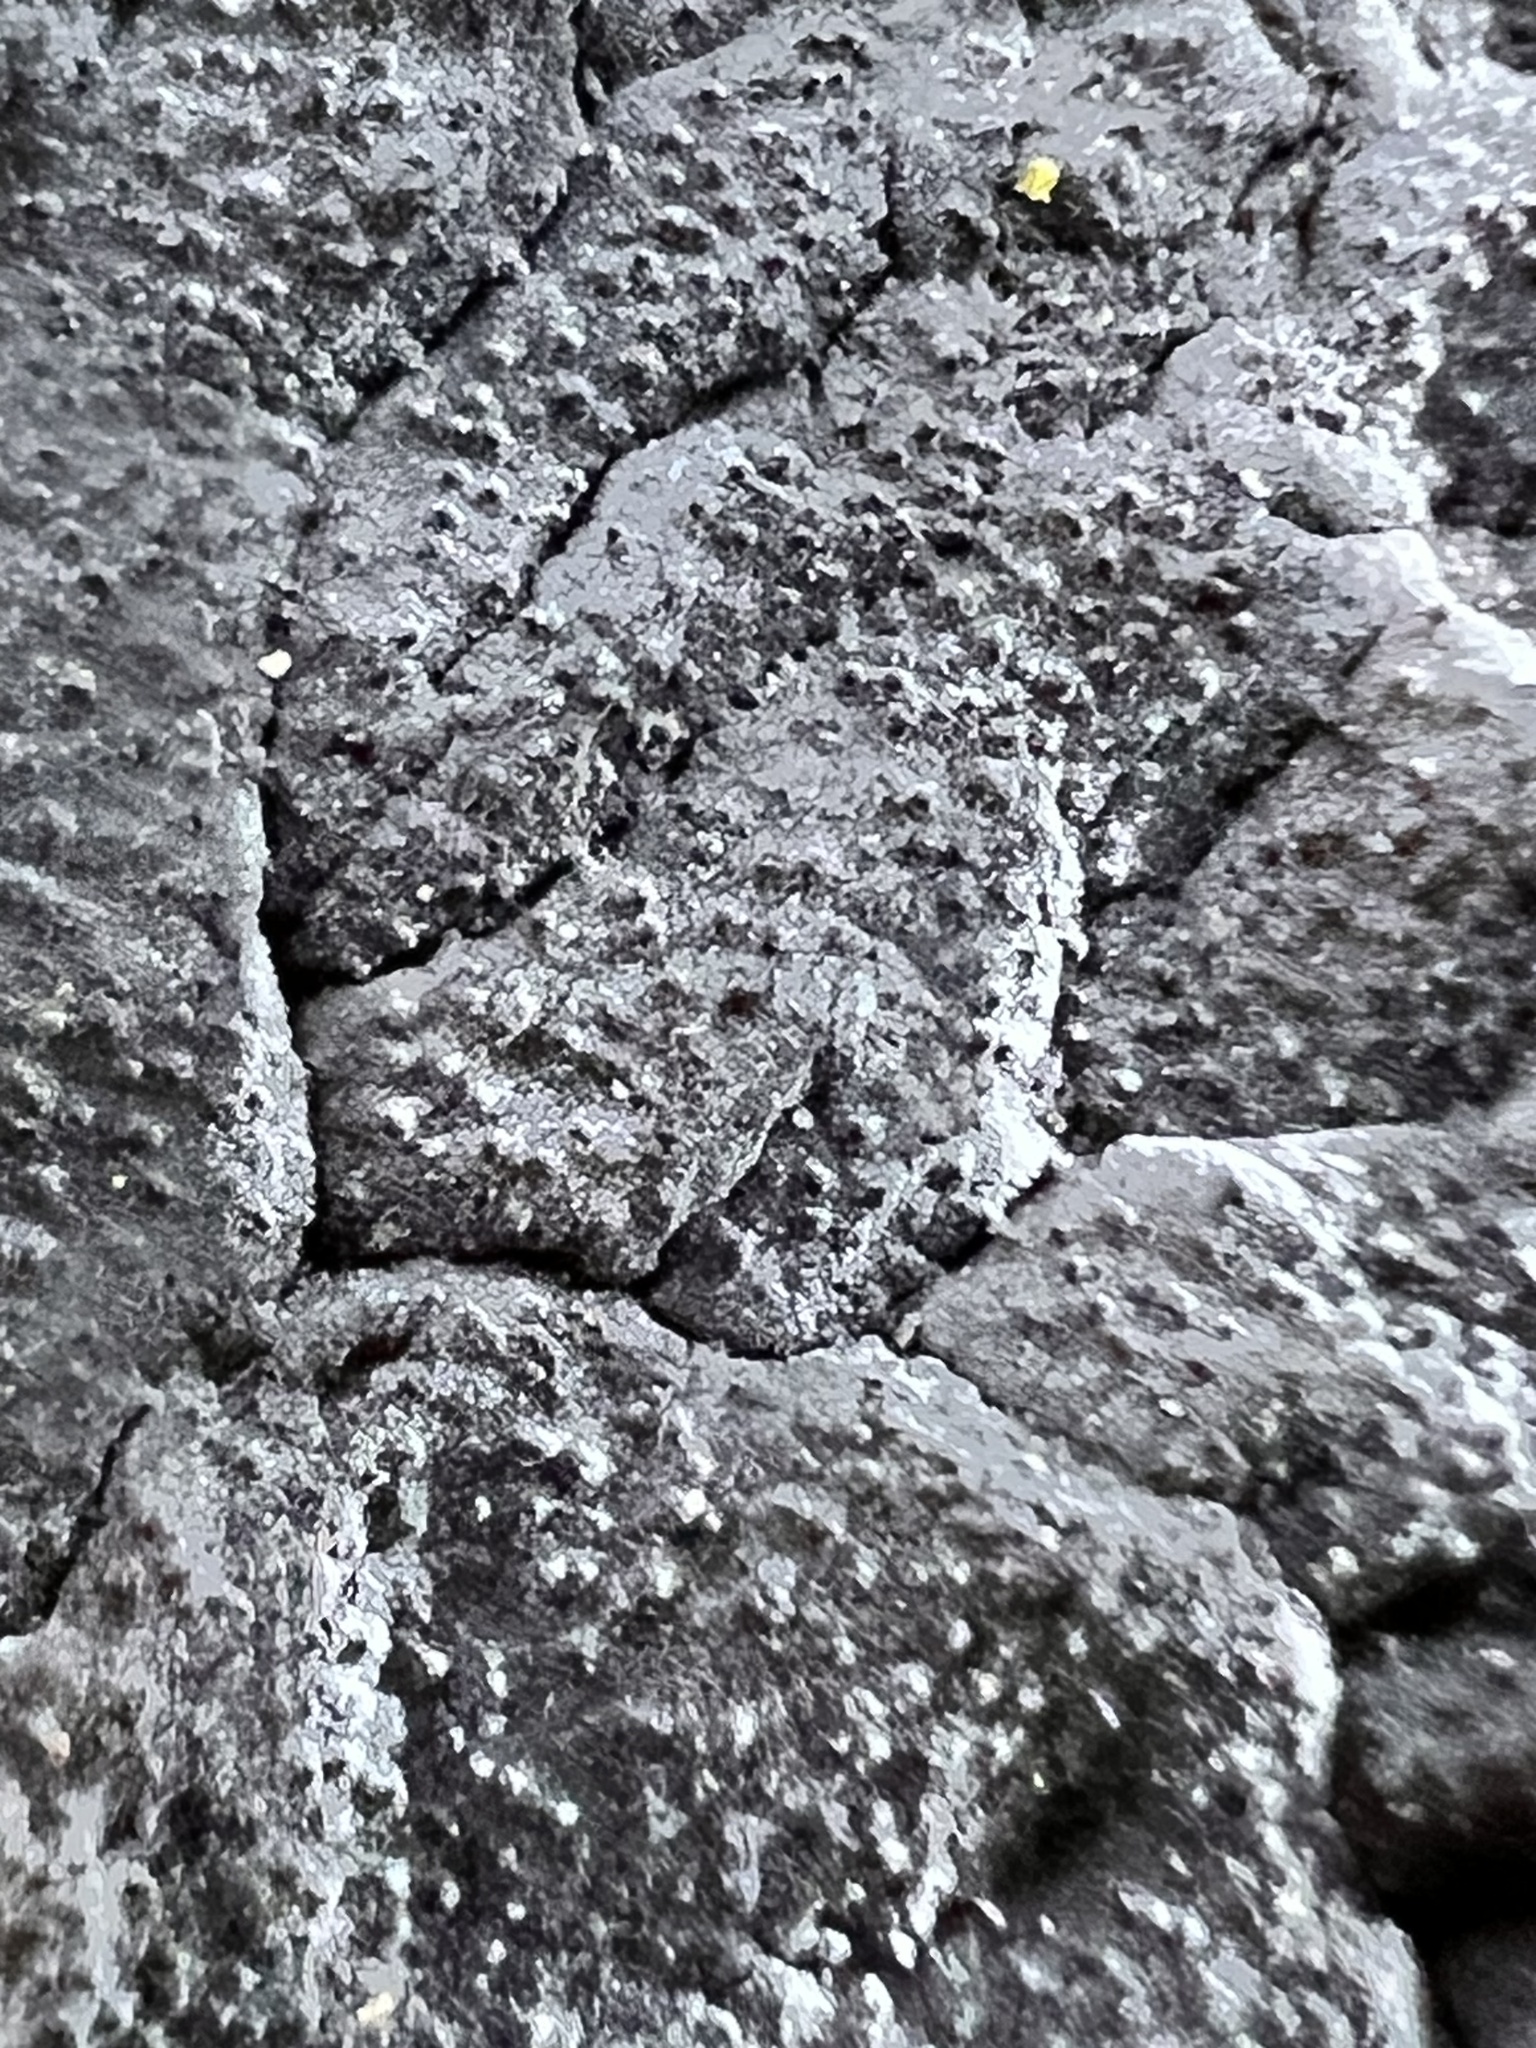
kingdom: Fungi
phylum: Basidiomycota
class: Agaricomycetes
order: Auriculariales
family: Auriculariaceae
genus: Tremellochaete
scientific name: Tremellochaete
